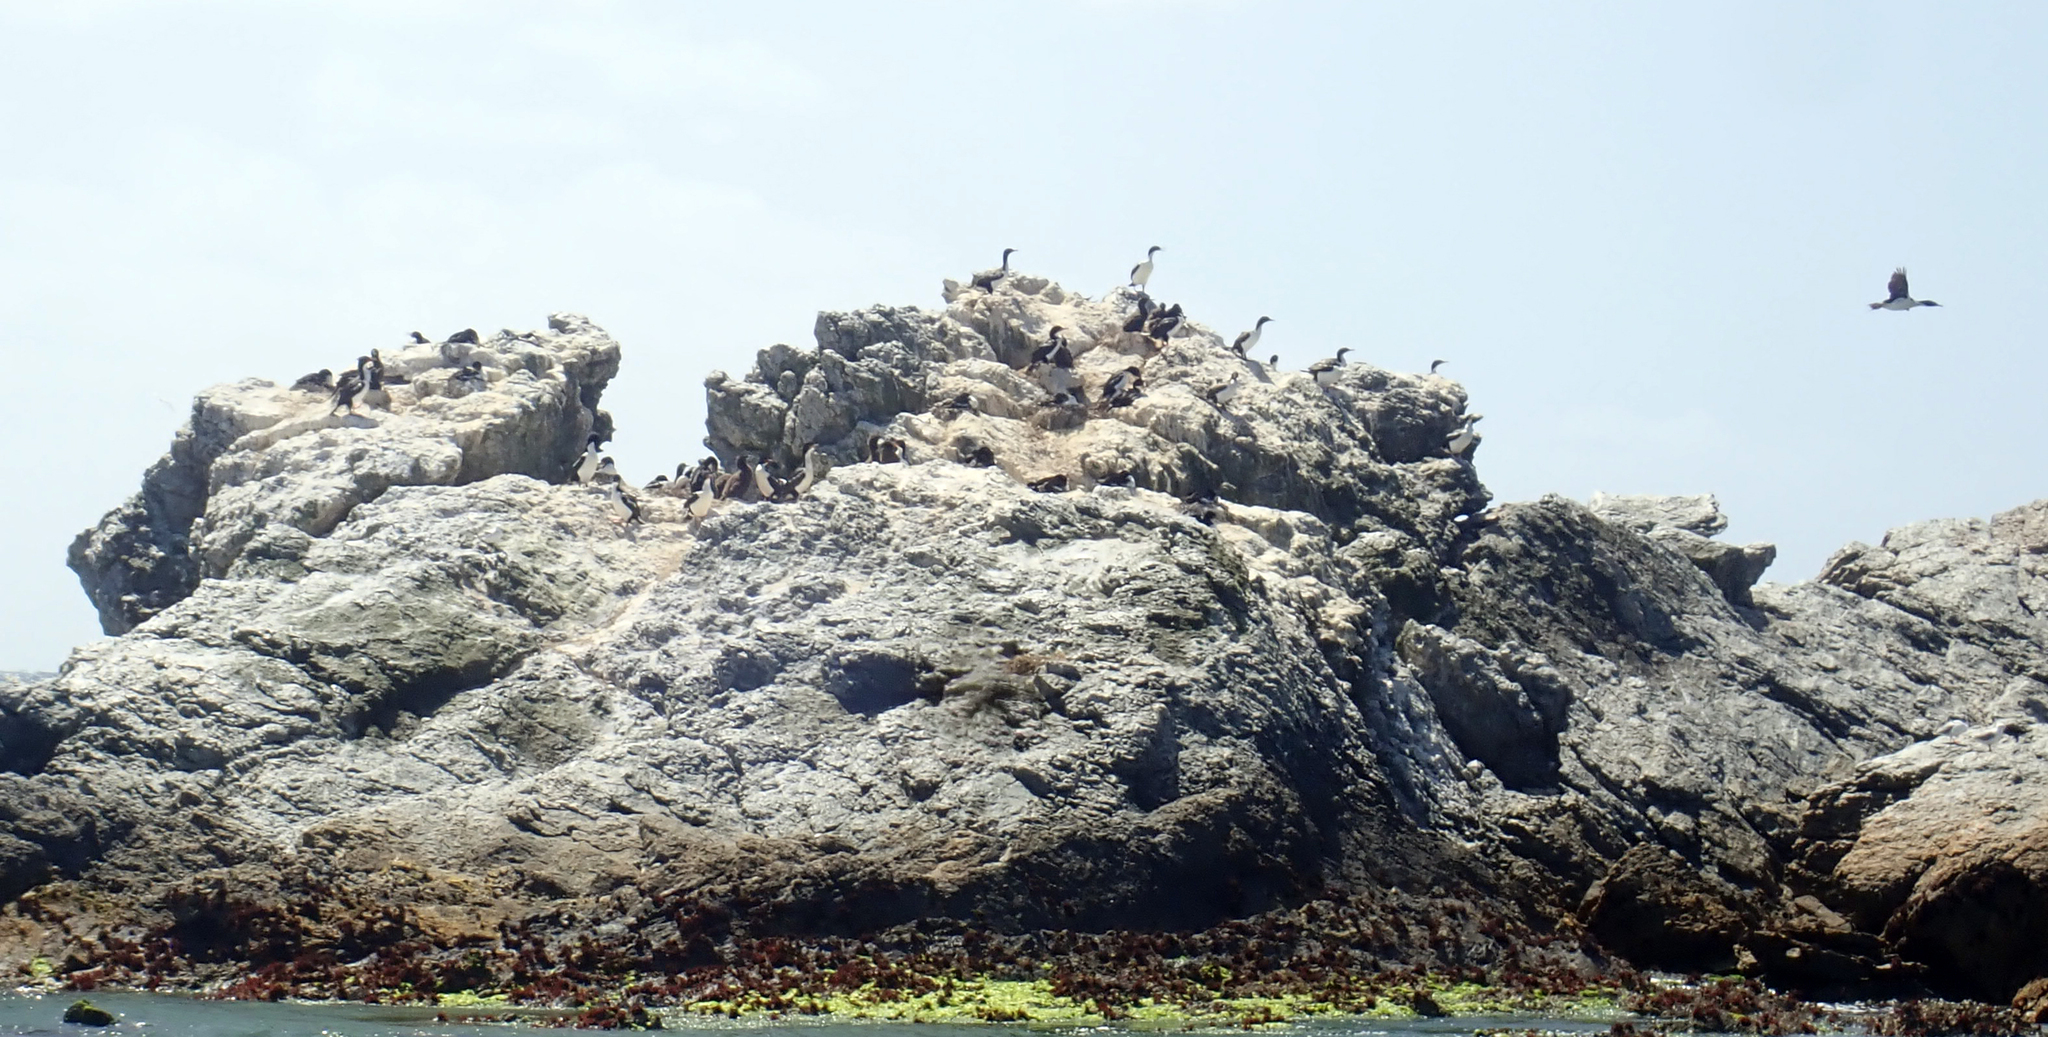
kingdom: Animalia
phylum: Chordata
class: Aves
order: Suliformes
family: Phalacrocoracidae
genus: Leucocarbo
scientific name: Leucocarbo onslowi
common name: Chatham shag
